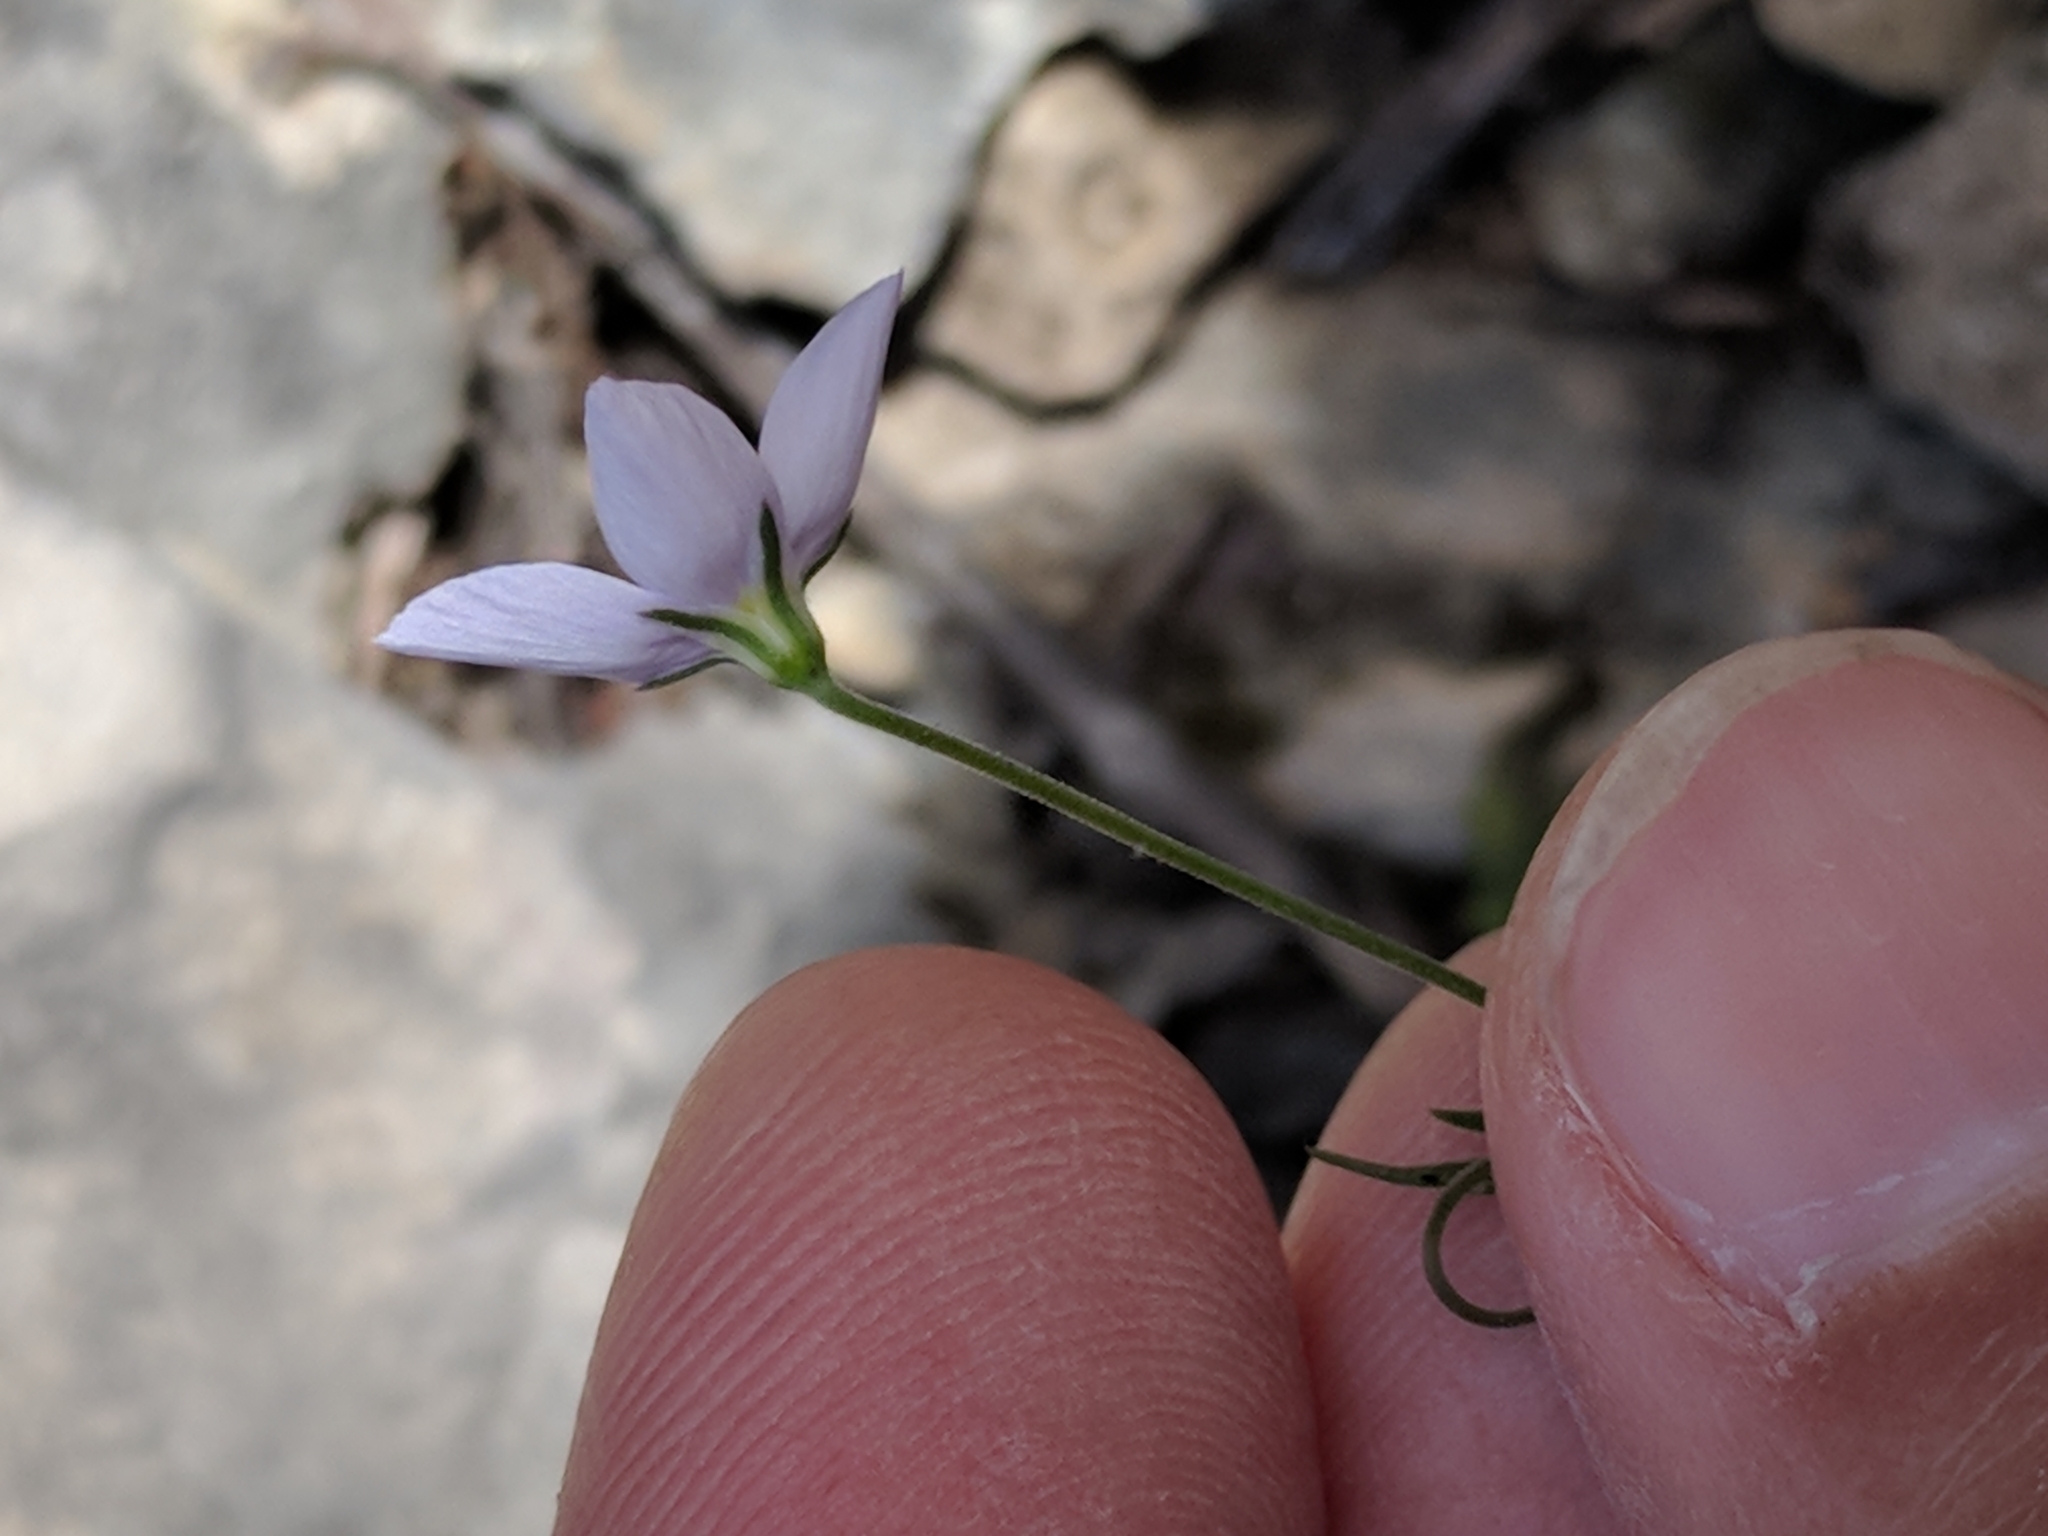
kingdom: Plantae
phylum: Tracheophyta
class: Magnoliopsida
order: Ericales
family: Polemoniaceae
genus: Giliastrum
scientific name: Giliastrum incisum
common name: Splitleaf gilia
